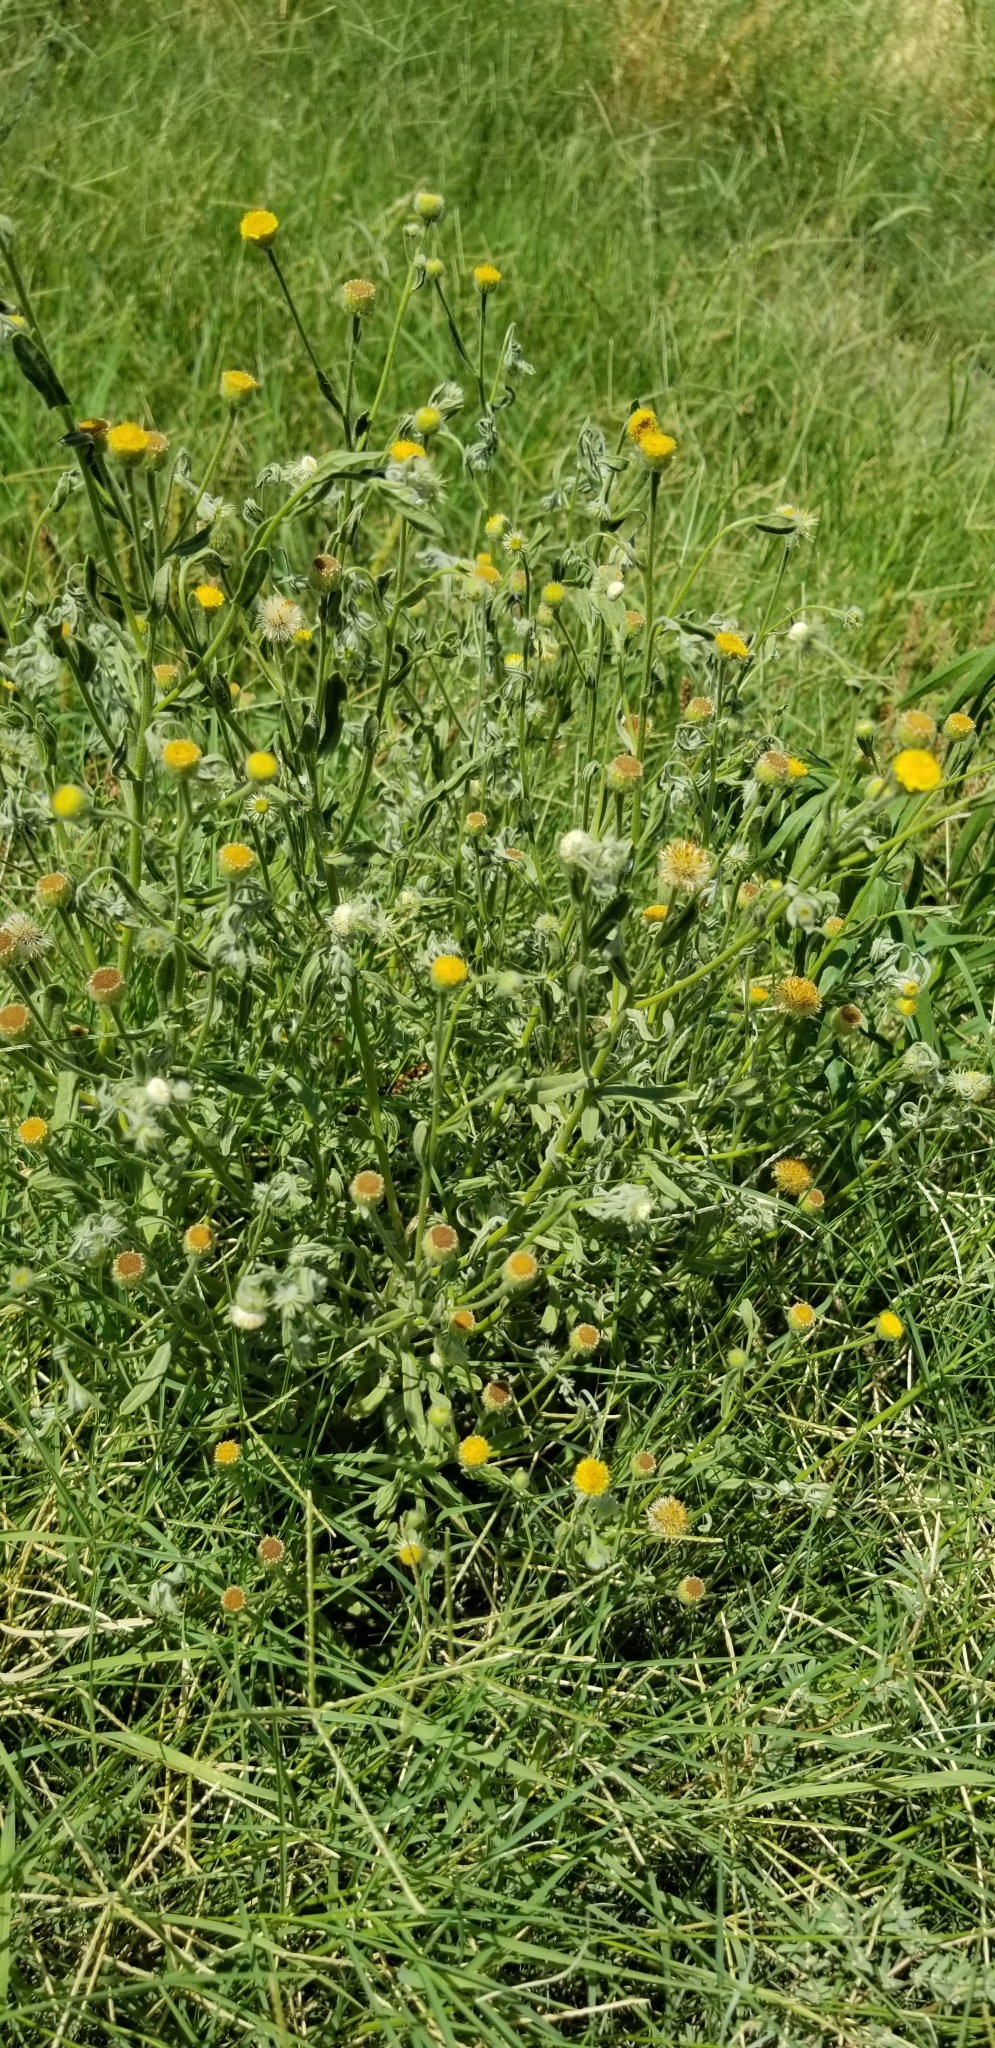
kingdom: Plantae
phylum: Tracheophyta
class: Magnoliopsida
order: Asterales
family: Asteraceae
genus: Pulicaria
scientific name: Pulicaria paludosa
